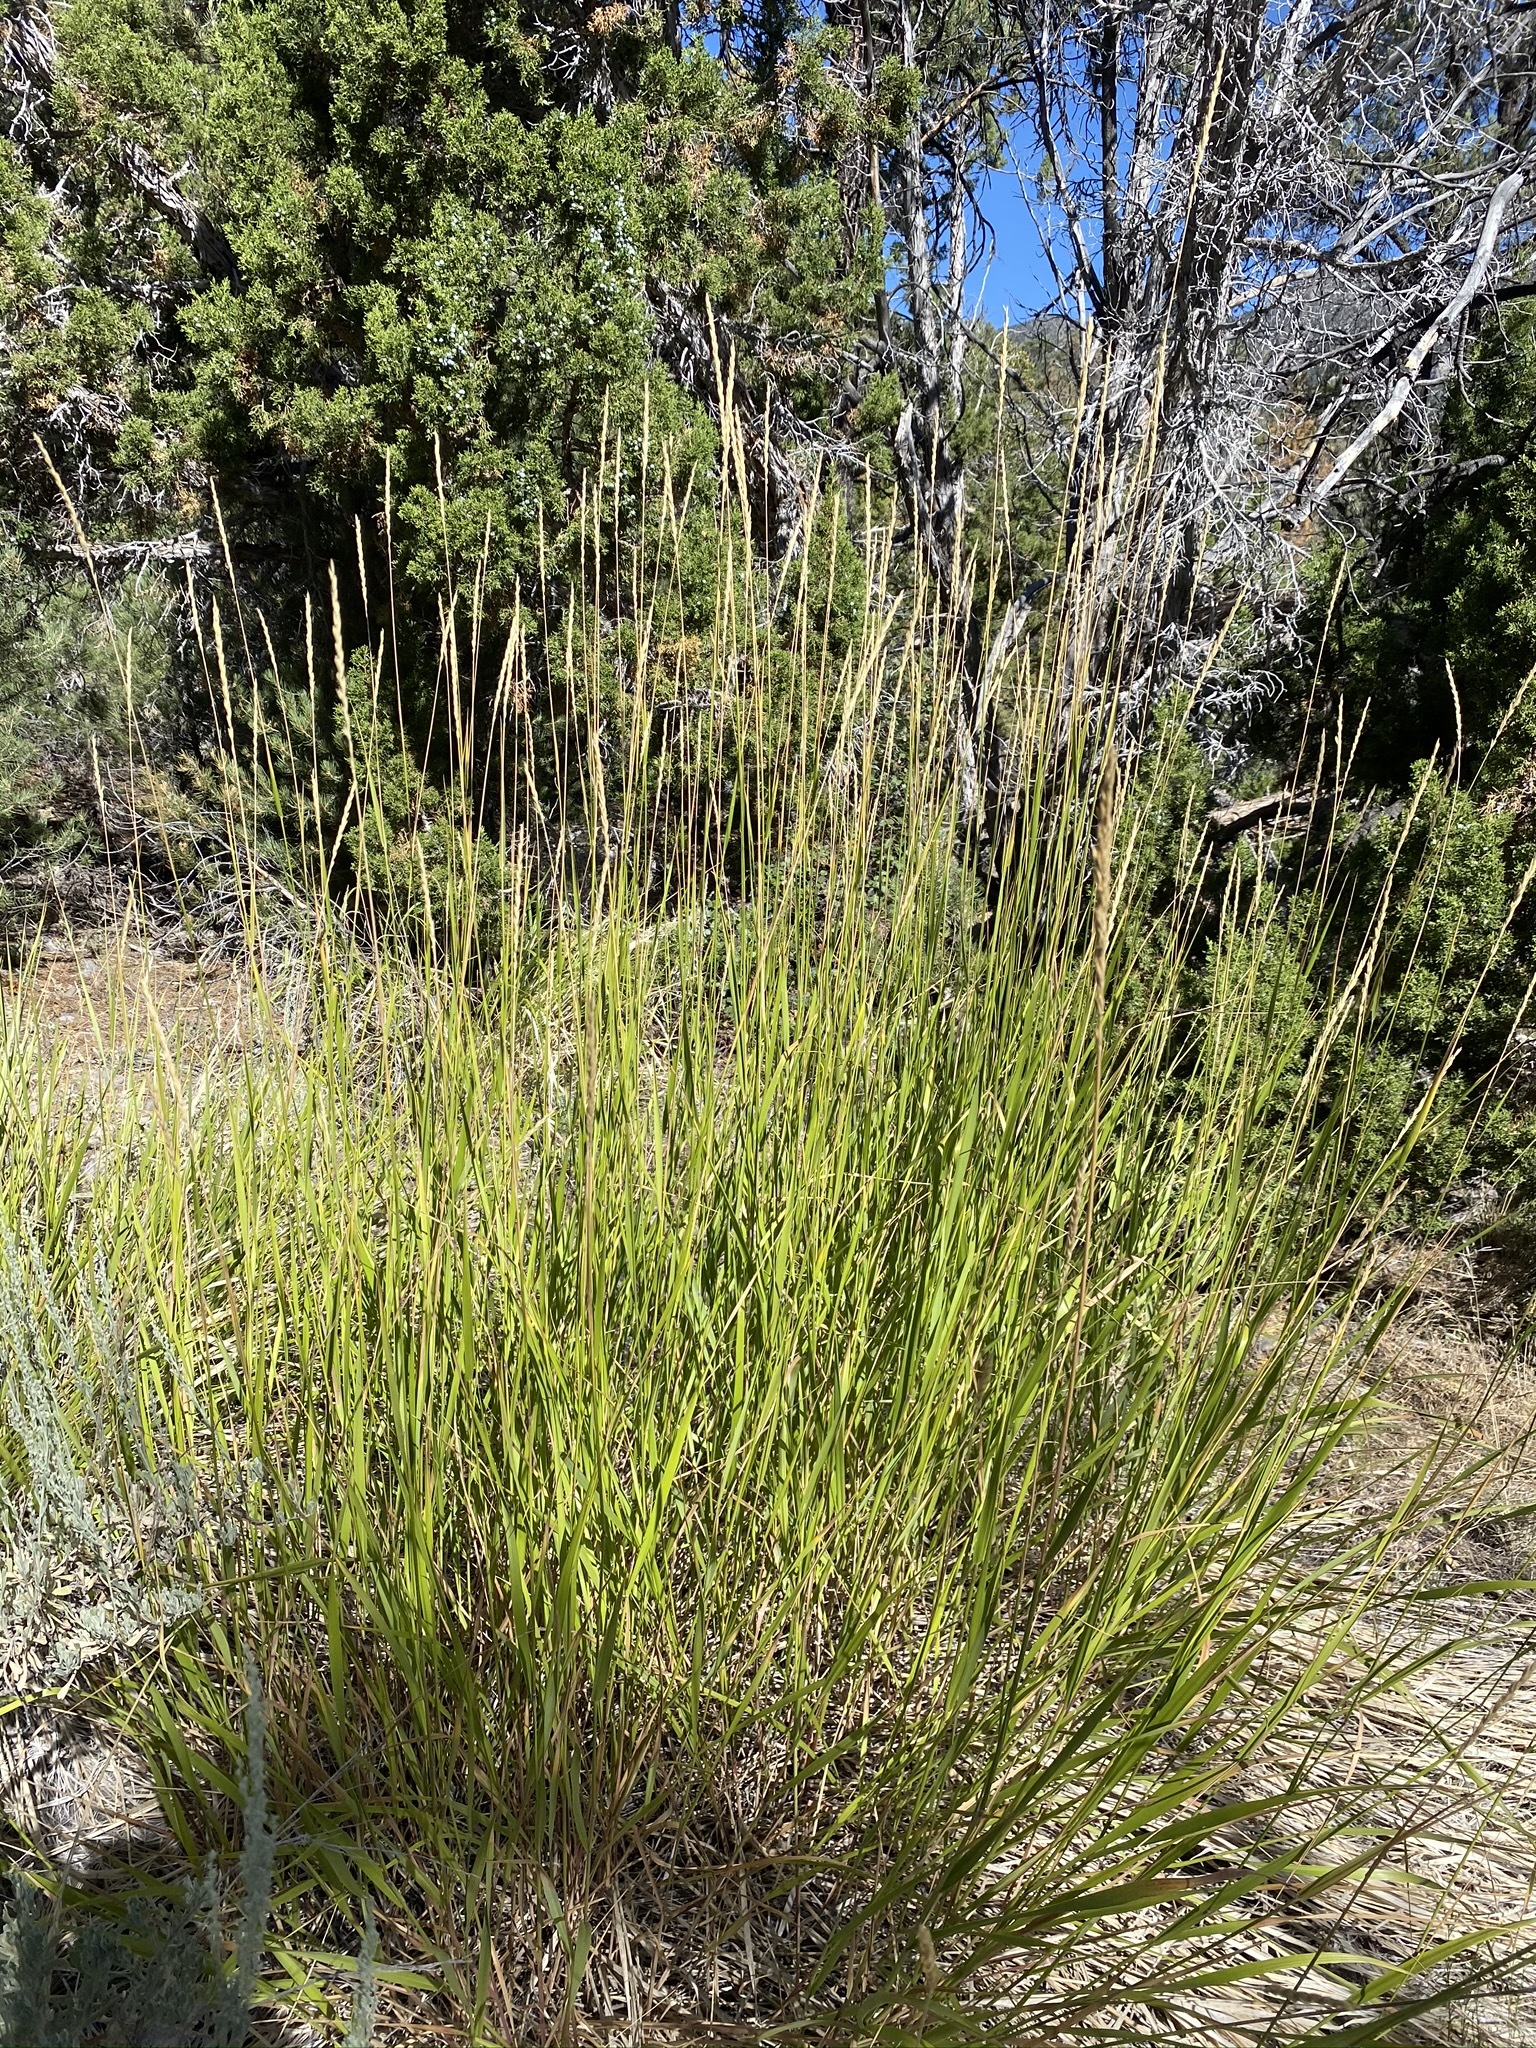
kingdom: Plantae
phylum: Tracheophyta
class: Liliopsida
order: Poales
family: Poaceae
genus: Leymus
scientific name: Leymus cinereus
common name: Basin wild rye
